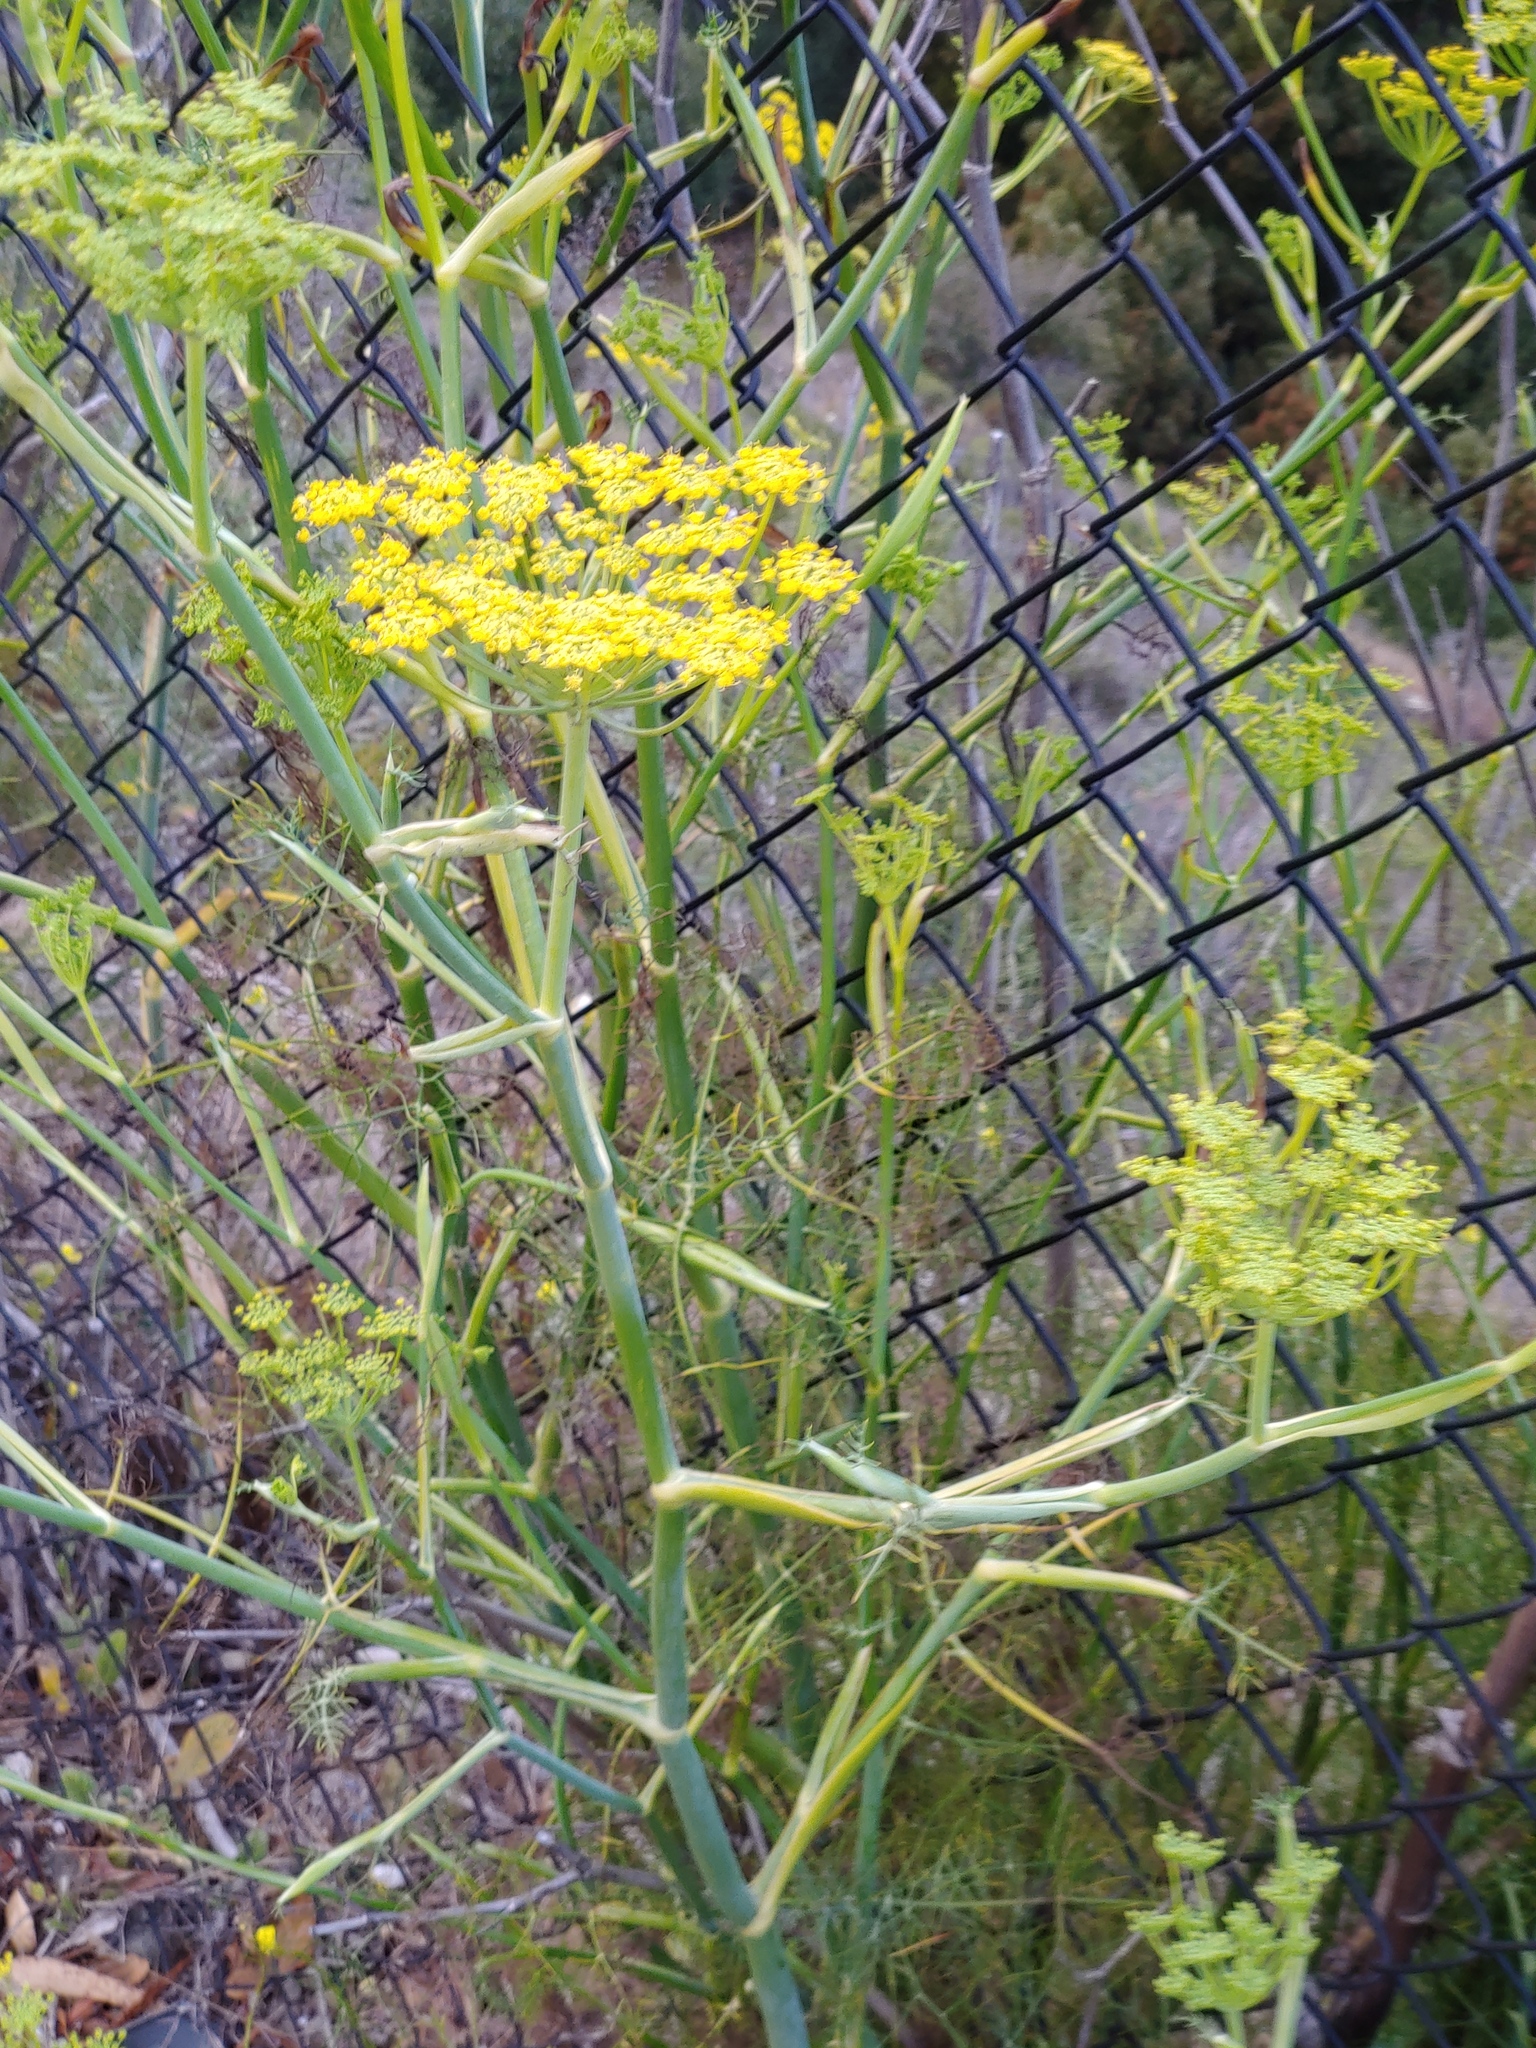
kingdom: Plantae
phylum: Tracheophyta
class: Magnoliopsida
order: Apiales
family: Apiaceae
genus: Foeniculum
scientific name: Foeniculum vulgare
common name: Fennel
